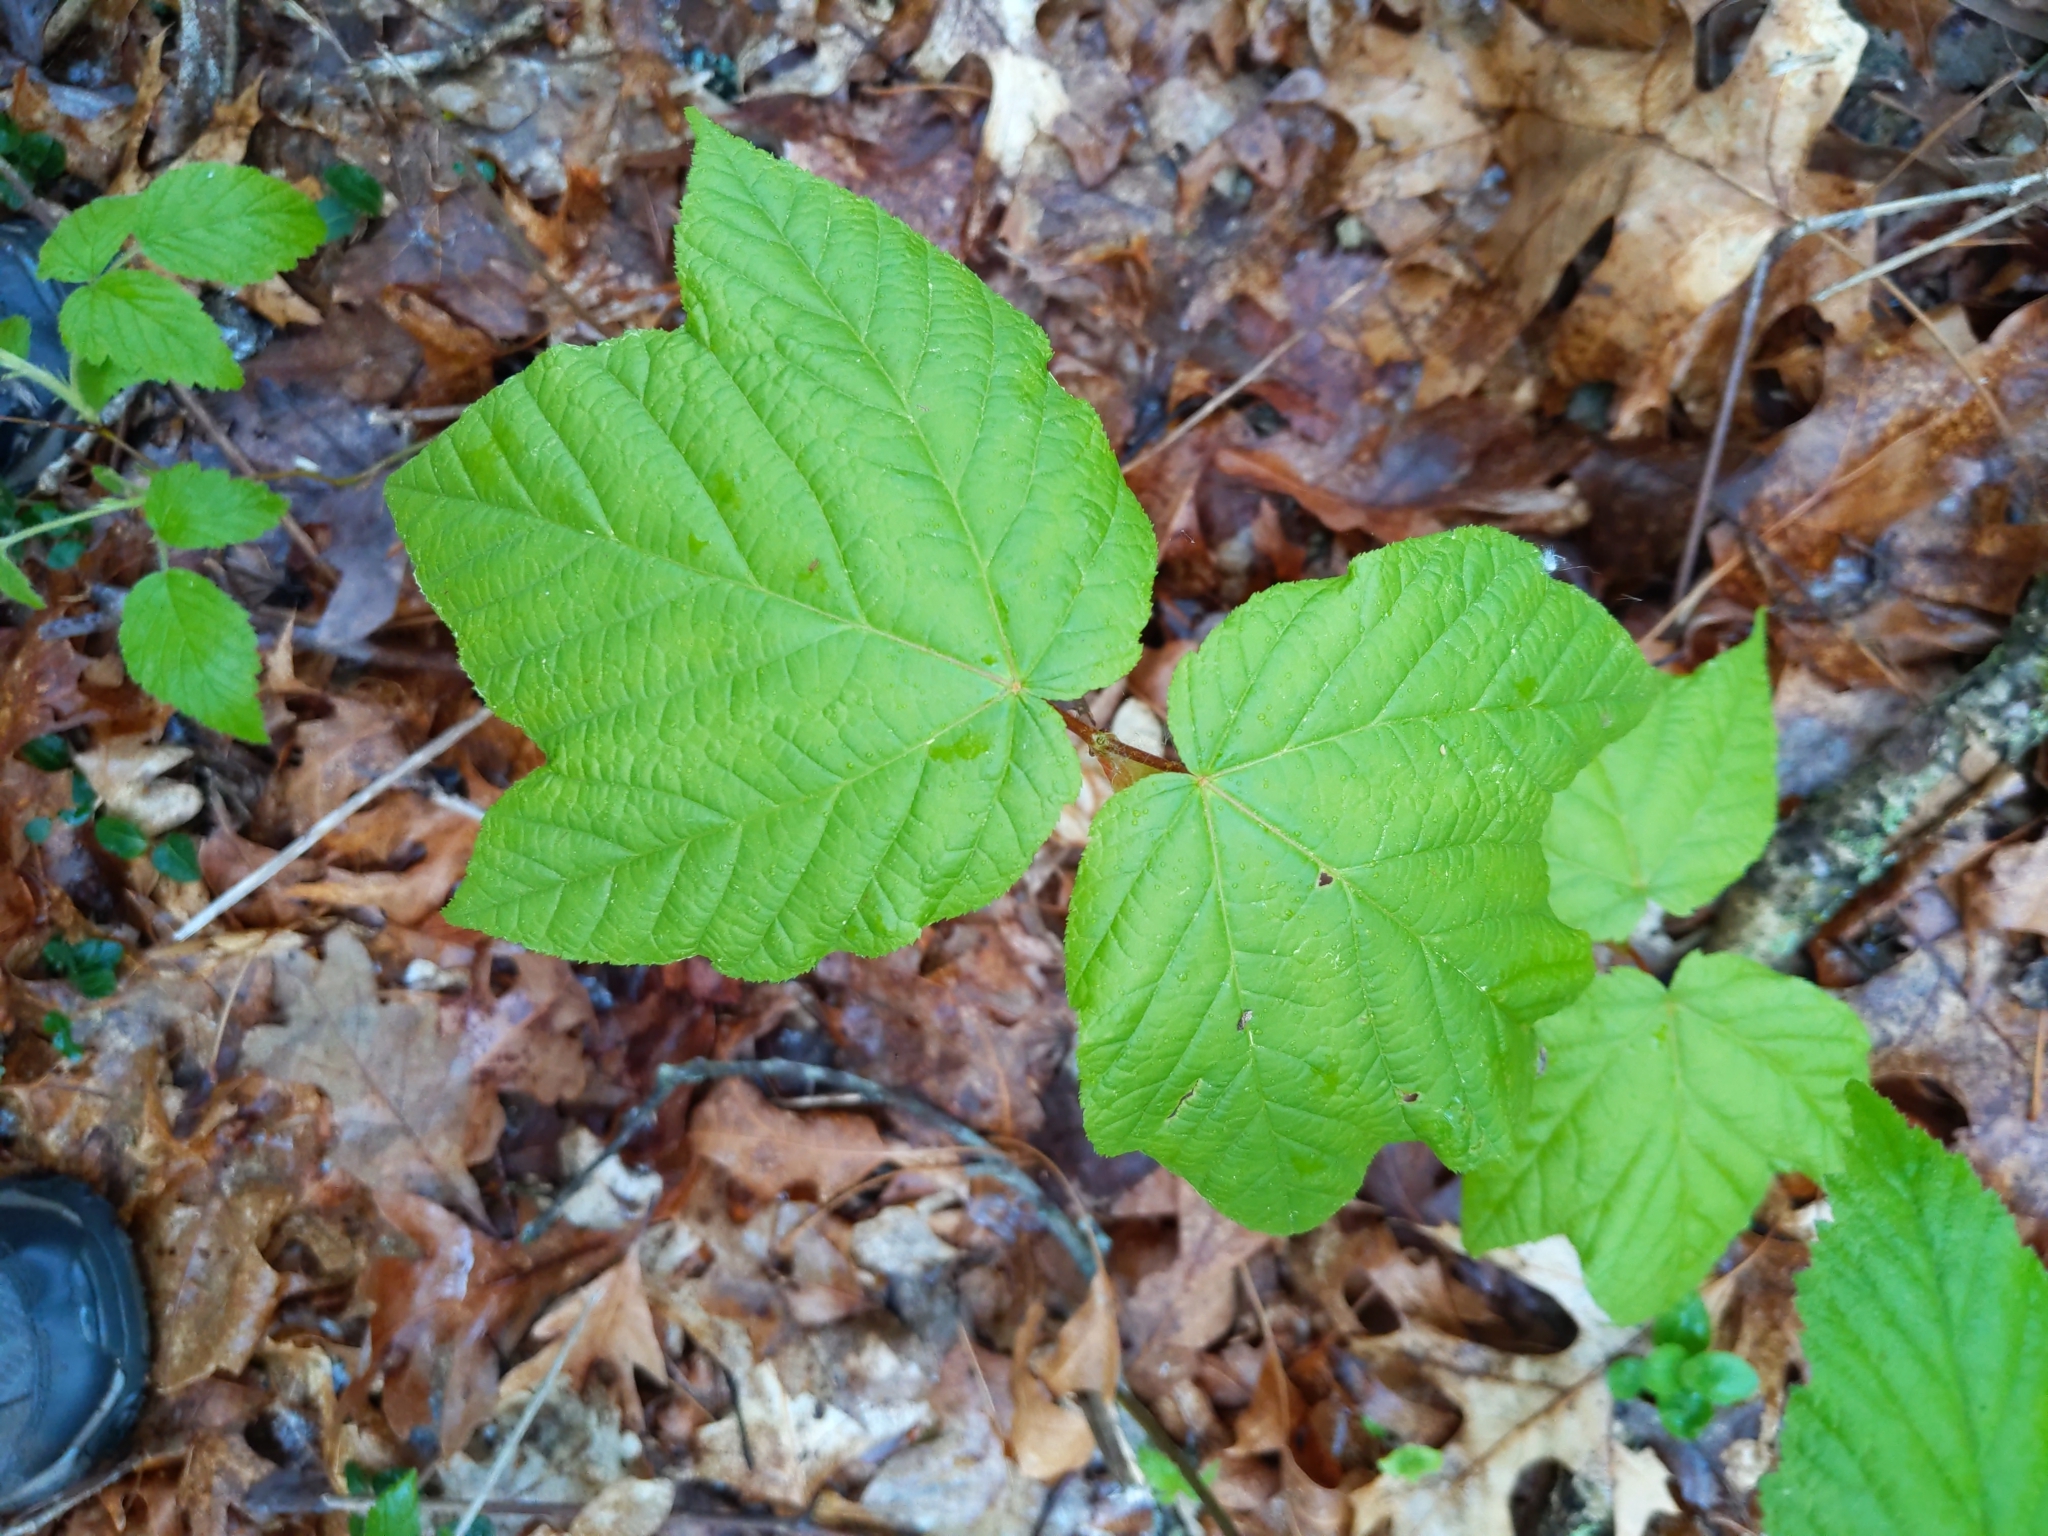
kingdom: Plantae
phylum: Tracheophyta
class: Magnoliopsida
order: Sapindales
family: Sapindaceae
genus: Acer
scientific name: Acer pensylvanicum
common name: Moosewood
